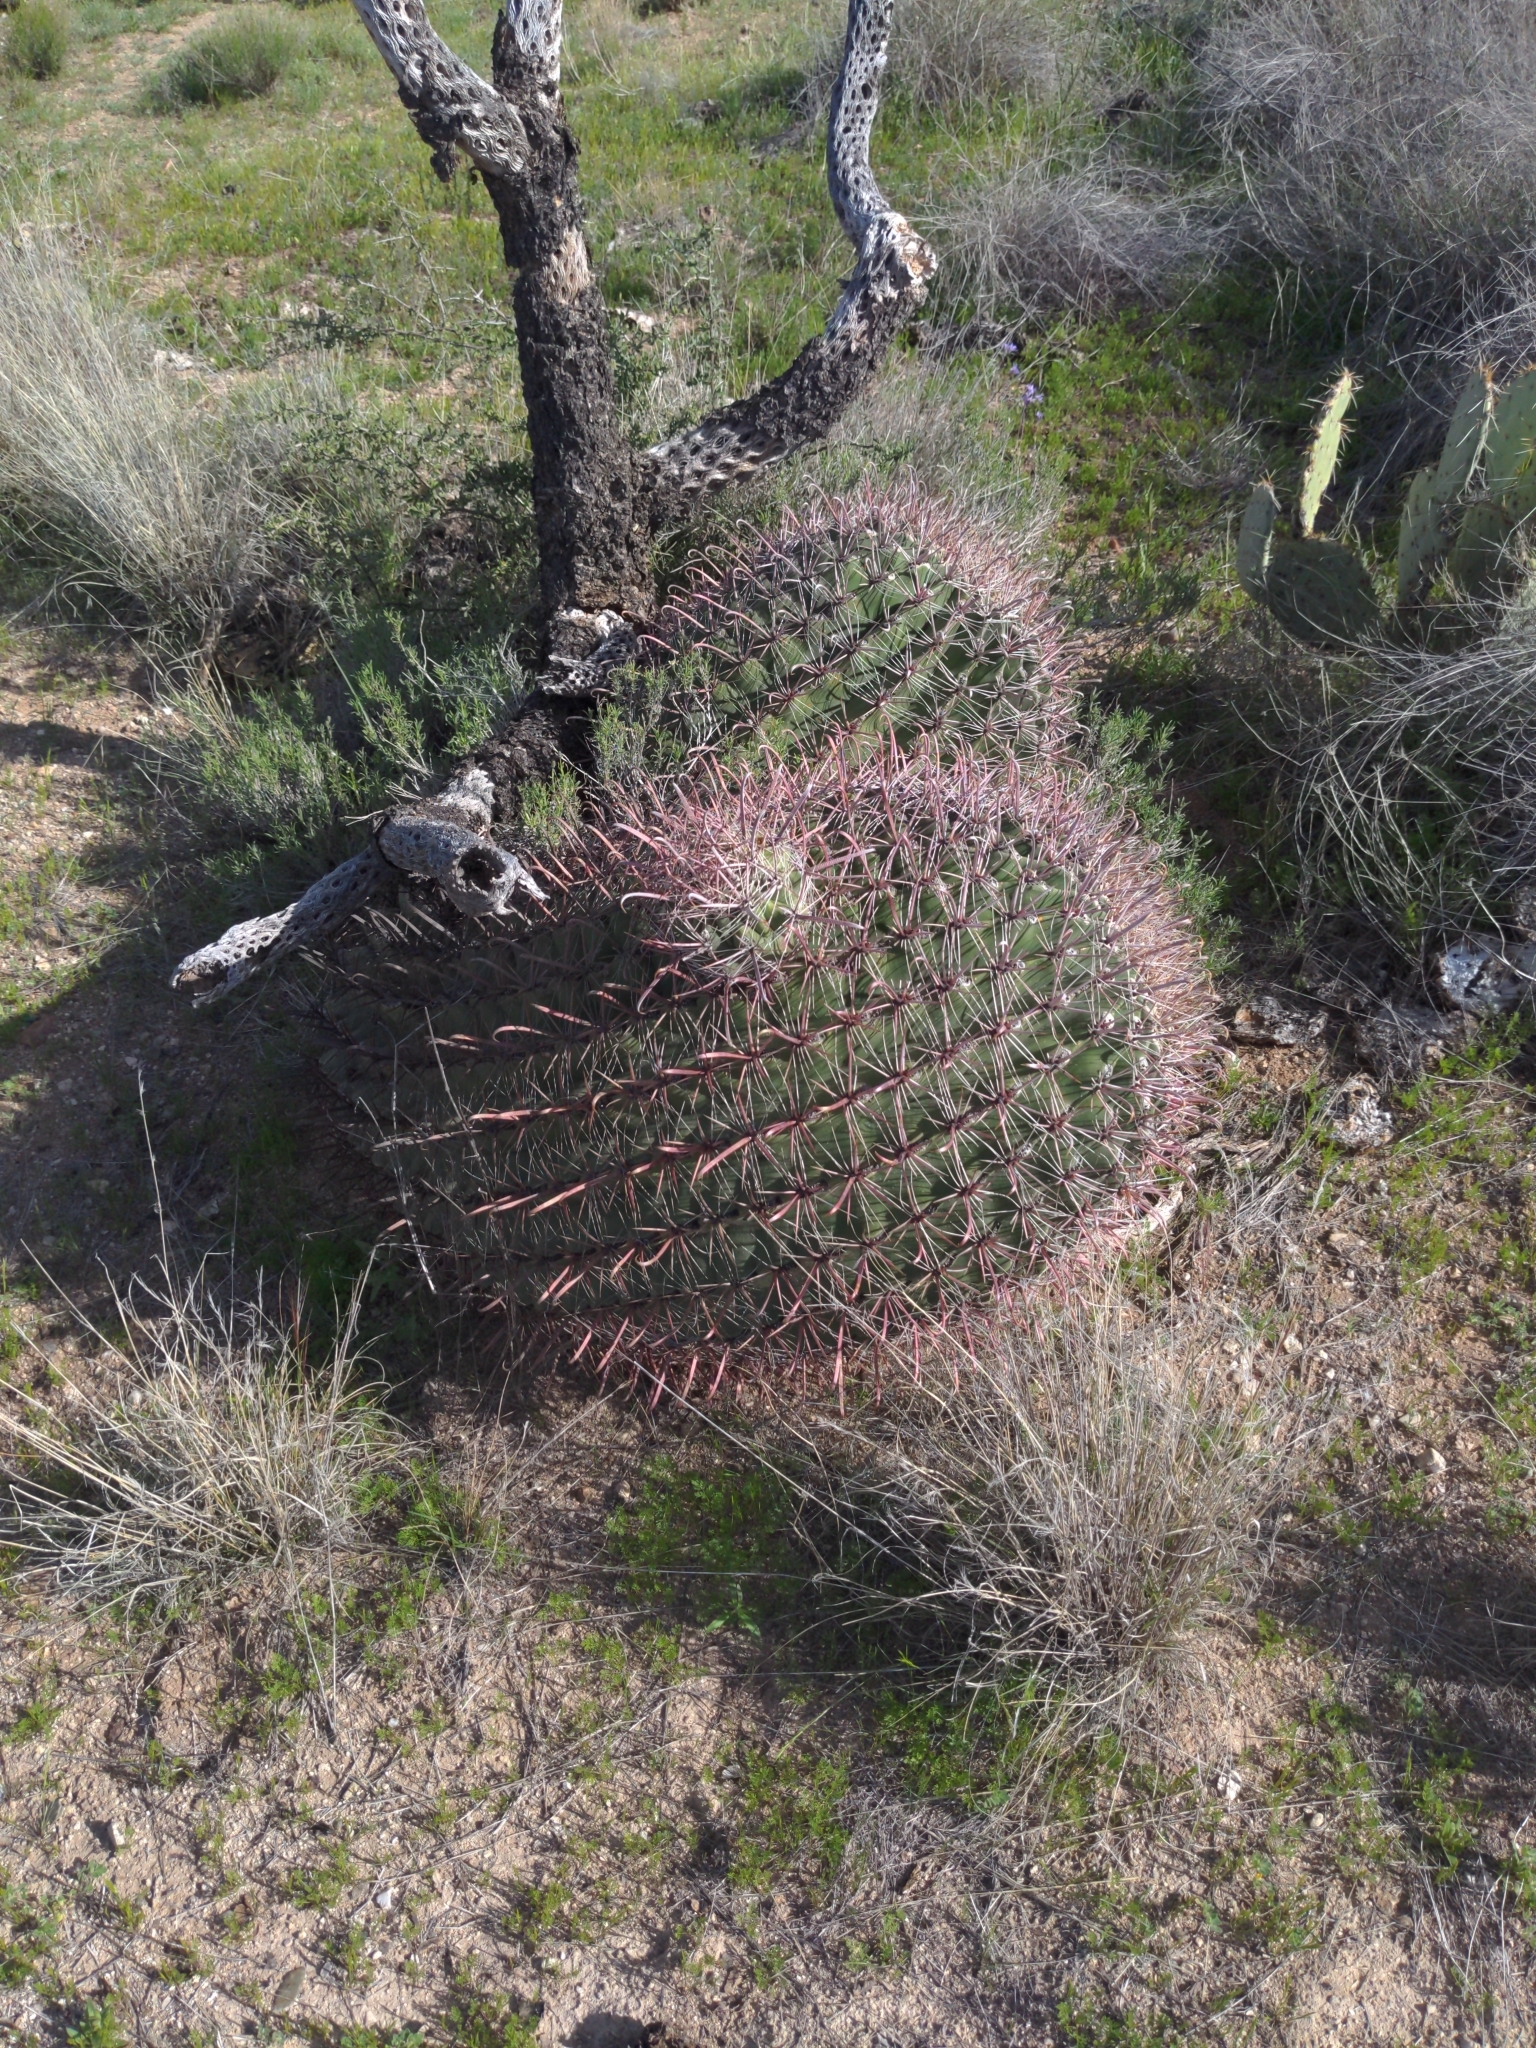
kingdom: Plantae
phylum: Tracheophyta
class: Magnoliopsida
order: Caryophyllales
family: Cactaceae
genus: Ferocactus
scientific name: Ferocactus wislizeni
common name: Candy barrel cactus
